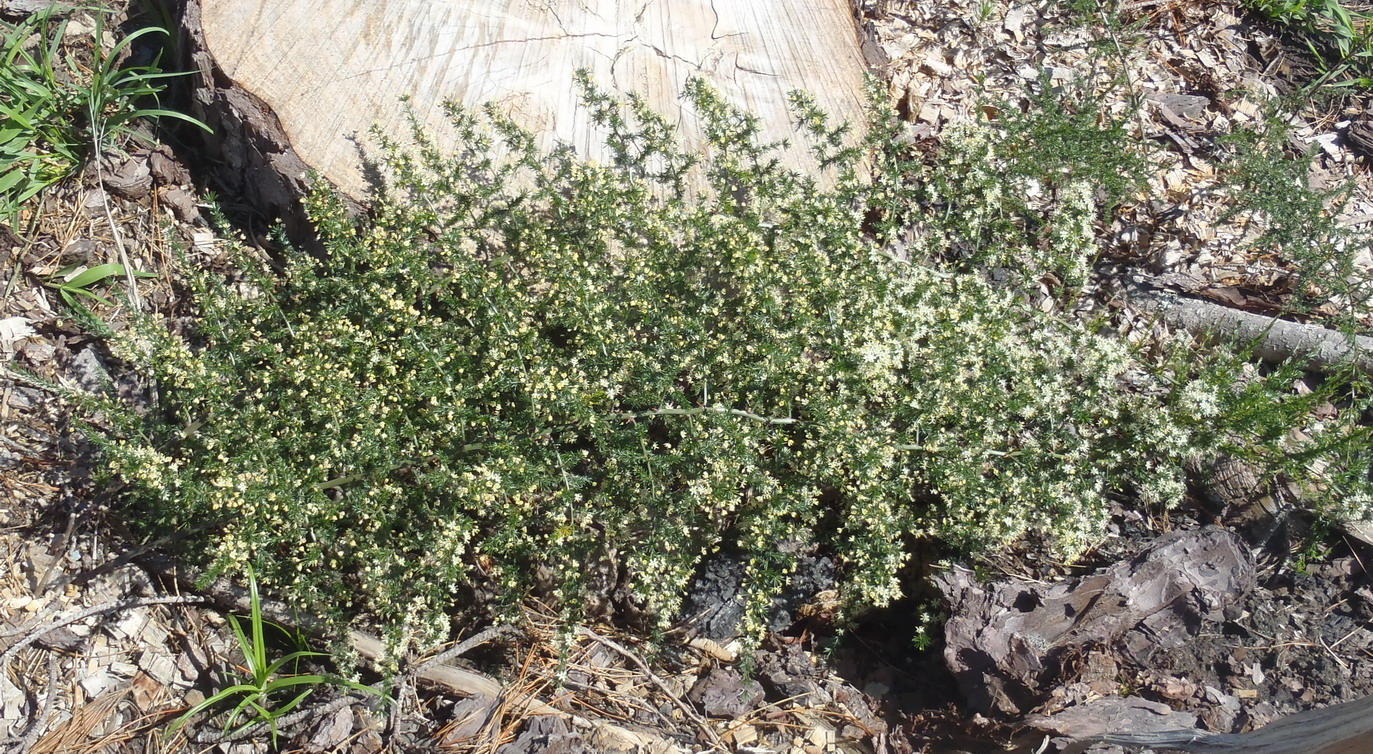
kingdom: Plantae
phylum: Tracheophyta
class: Liliopsida
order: Asparagales
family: Asparagaceae
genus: Asparagus
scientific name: Asparagus africanus
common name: Asparagus-fern
